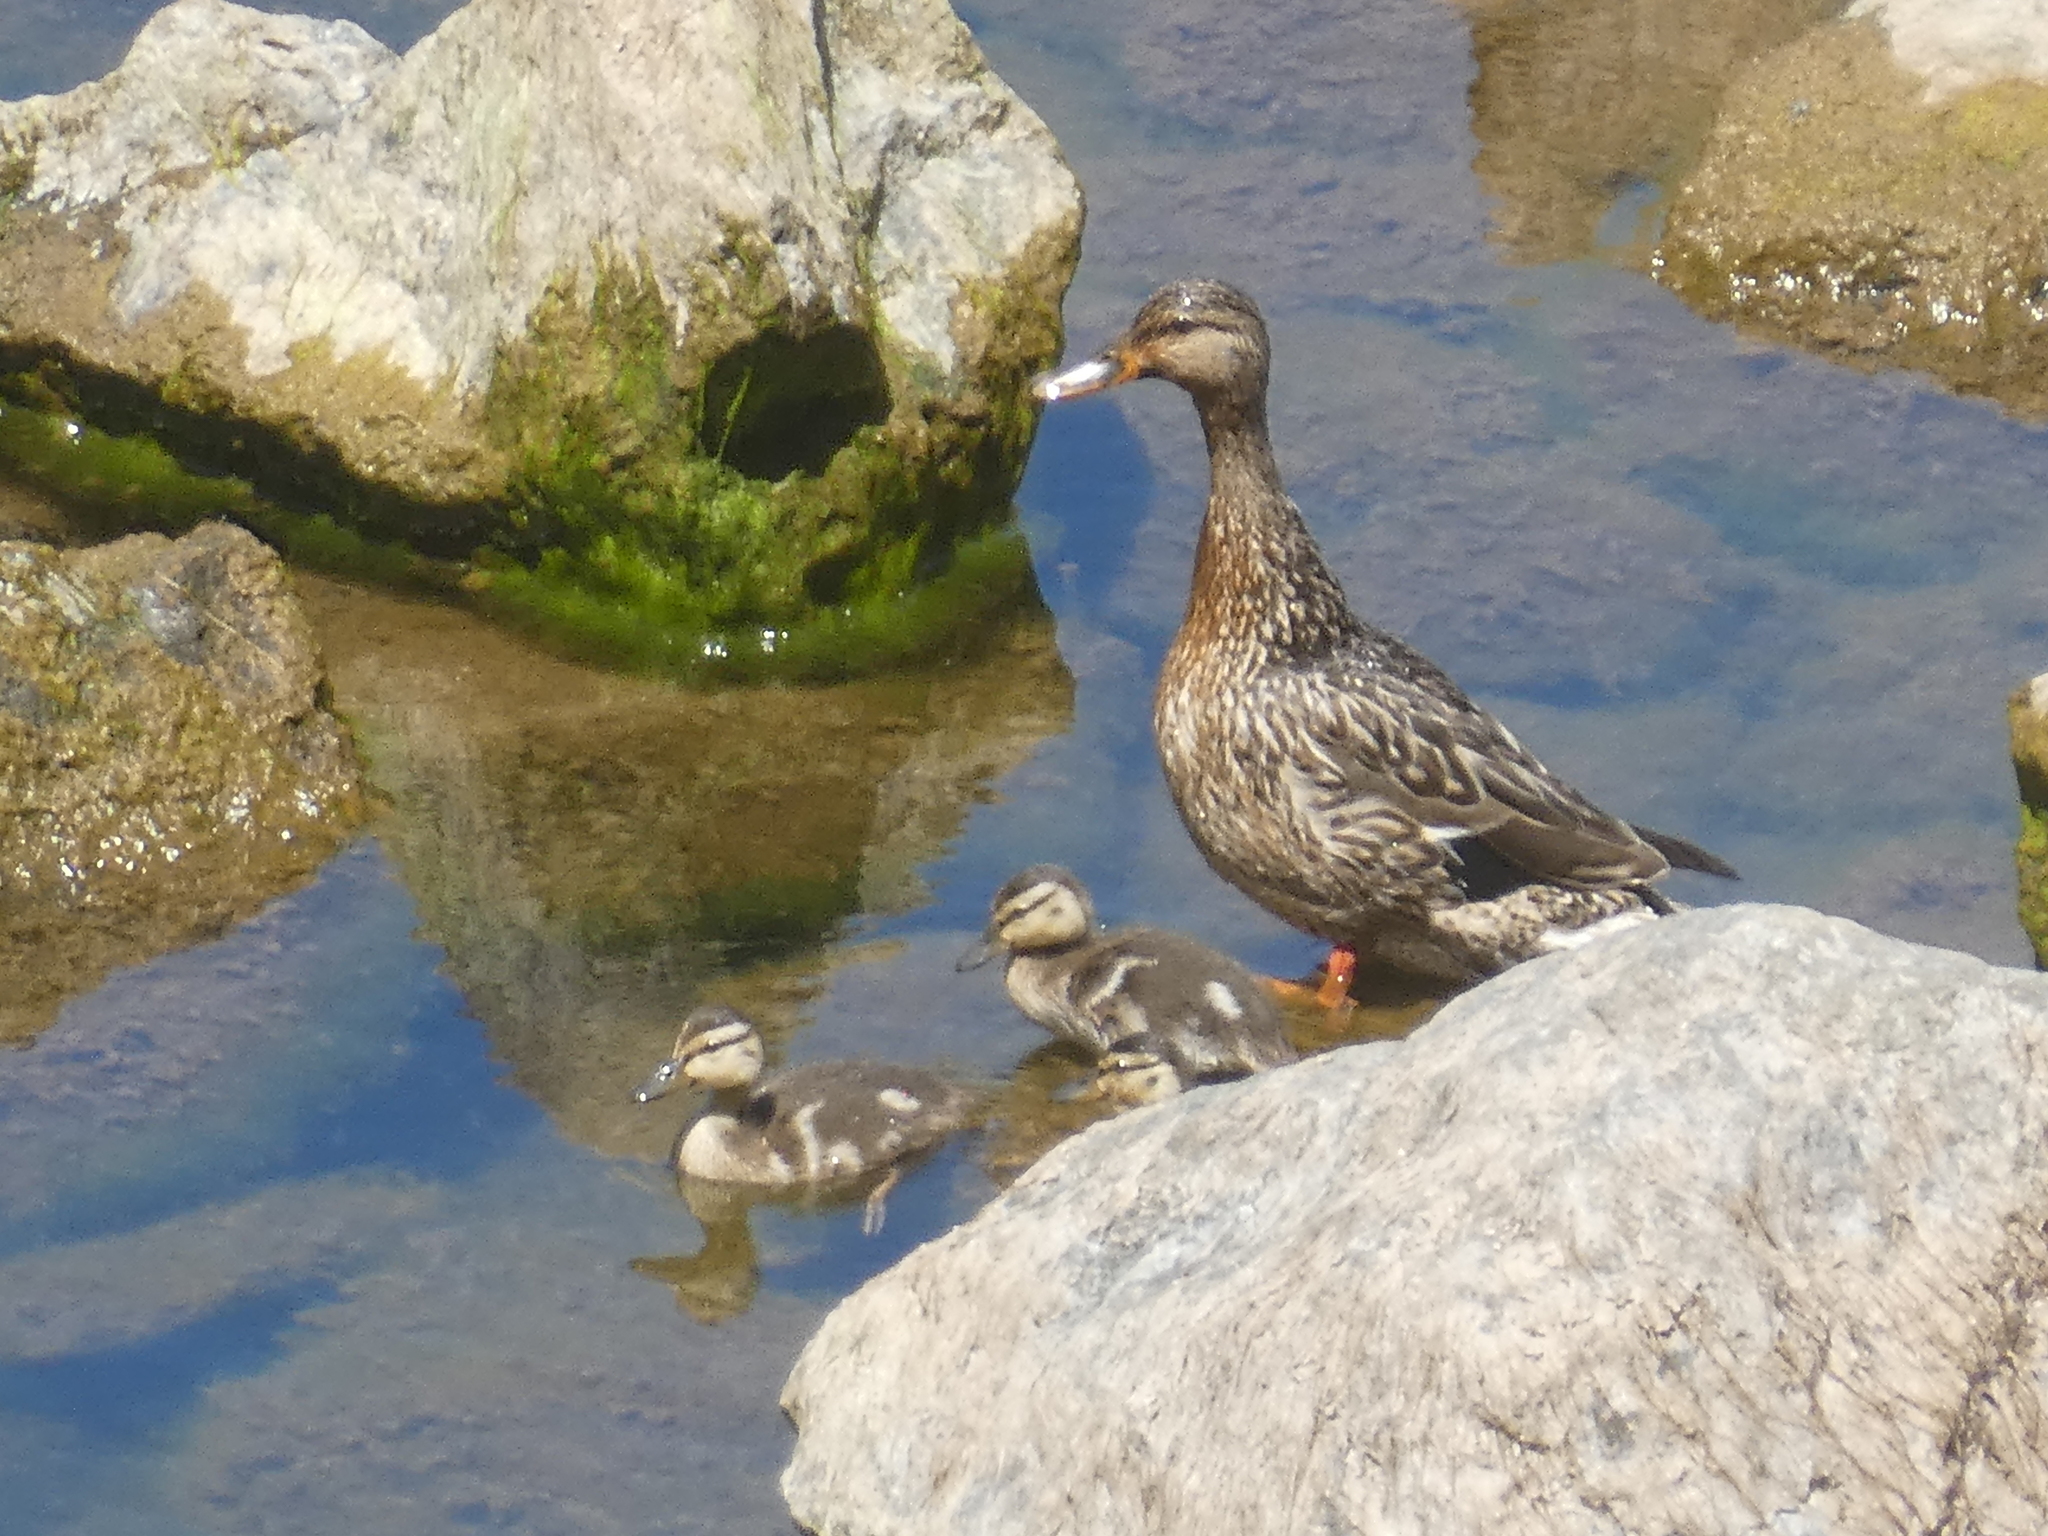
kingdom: Animalia
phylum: Chordata
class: Aves
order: Anseriformes
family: Anatidae
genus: Anas
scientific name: Anas platyrhynchos
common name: Mallard
